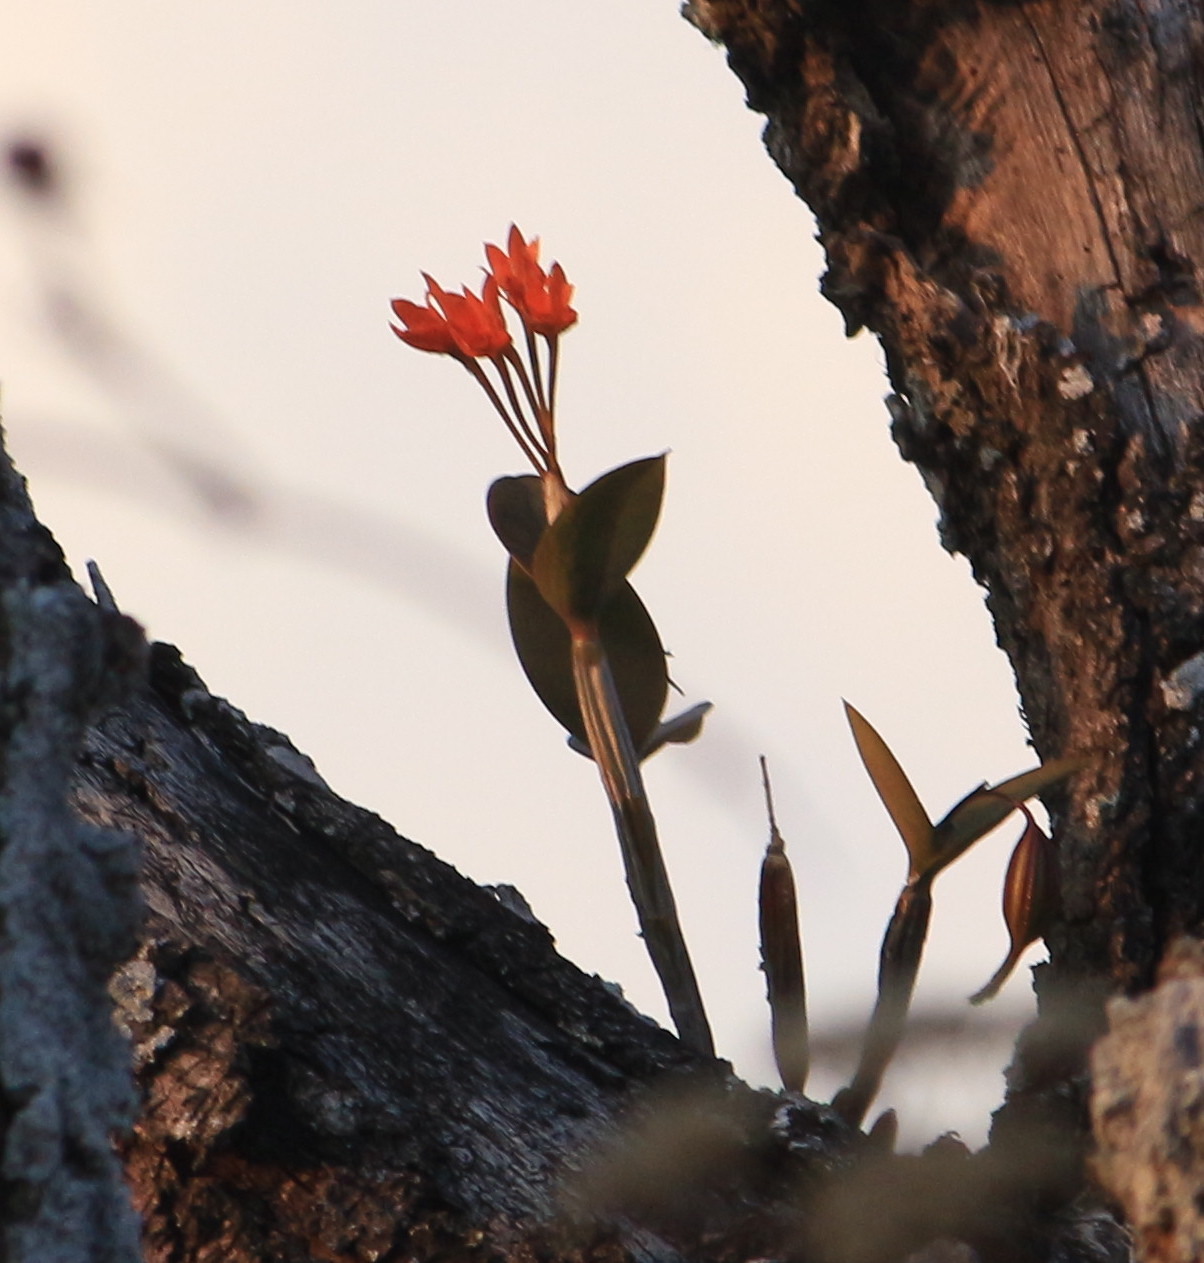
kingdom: Plantae
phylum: Tracheophyta
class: Liliopsida
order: Asparagales
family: Orchidaceae
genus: Guarianthe
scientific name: Guarianthe aurantiaca
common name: Orange cattleya
